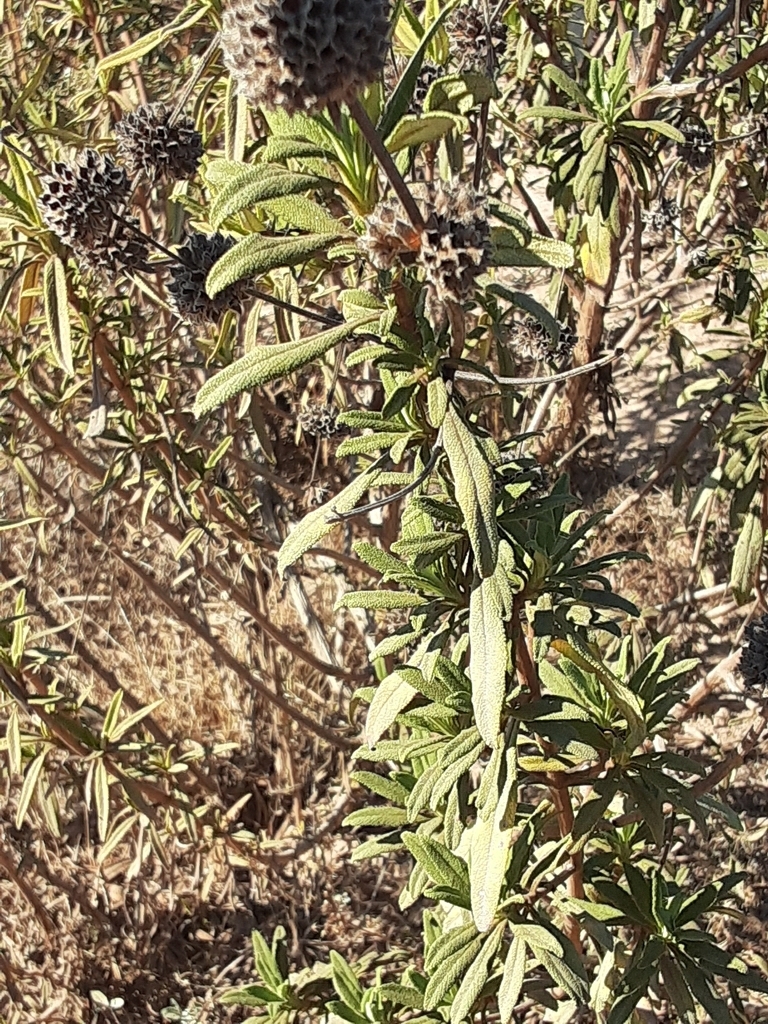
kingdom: Plantae
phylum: Tracheophyta
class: Magnoliopsida
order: Lamiales
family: Lamiaceae
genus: Salvia
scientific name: Salvia mellifera
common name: Black sage
